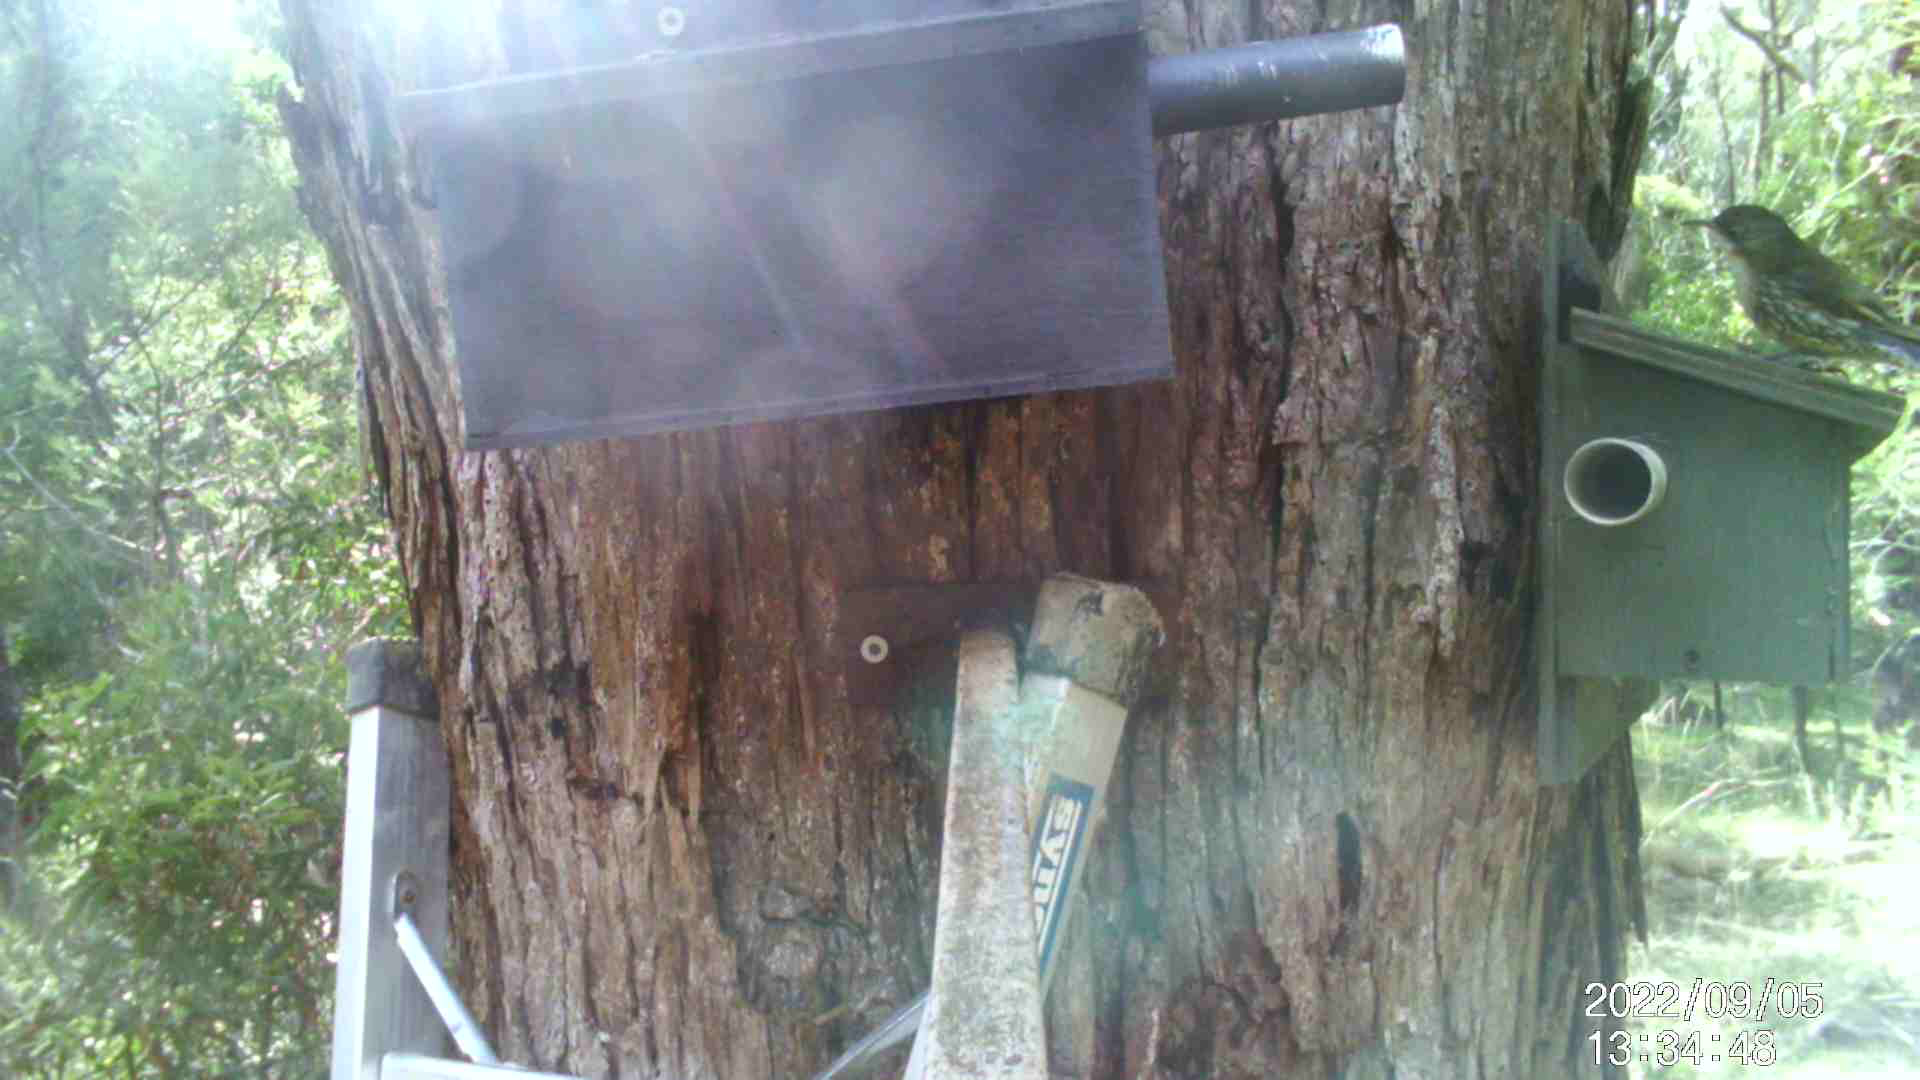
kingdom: Animalia
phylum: Chordata
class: Aves
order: Passeriformes
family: Climacteridae
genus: Cormobates
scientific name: Cormobates leucophaea
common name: White-throated treecreeper
